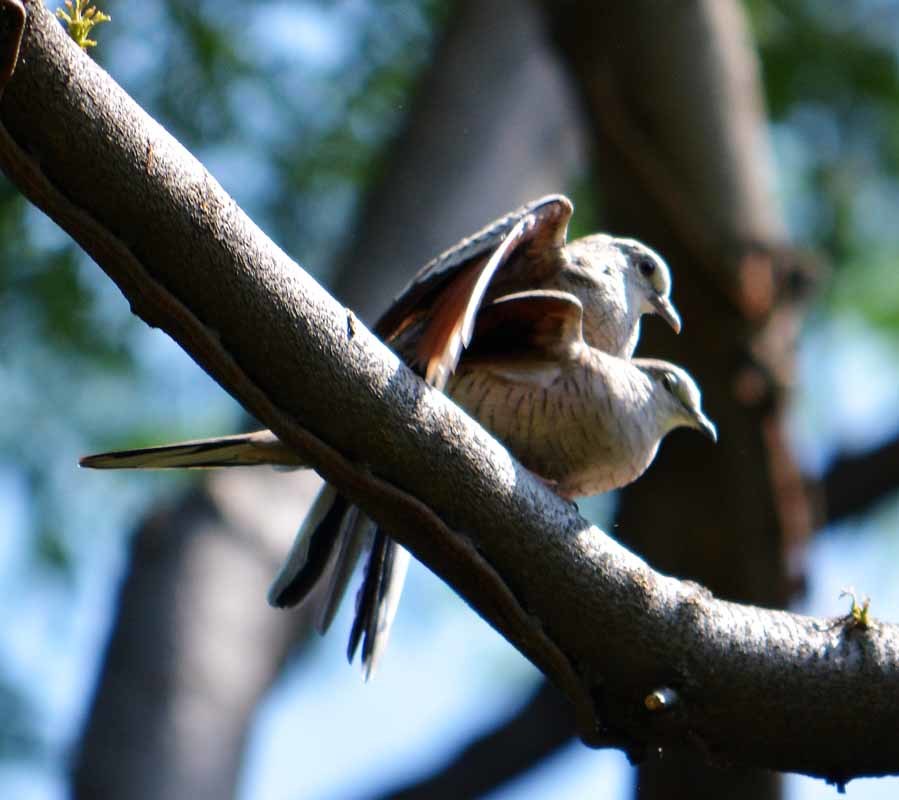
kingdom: Animalia
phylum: Chordata
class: Aves
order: Columbiformes
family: Columbidae
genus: Columbina
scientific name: Columbina inca
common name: Inca dove
